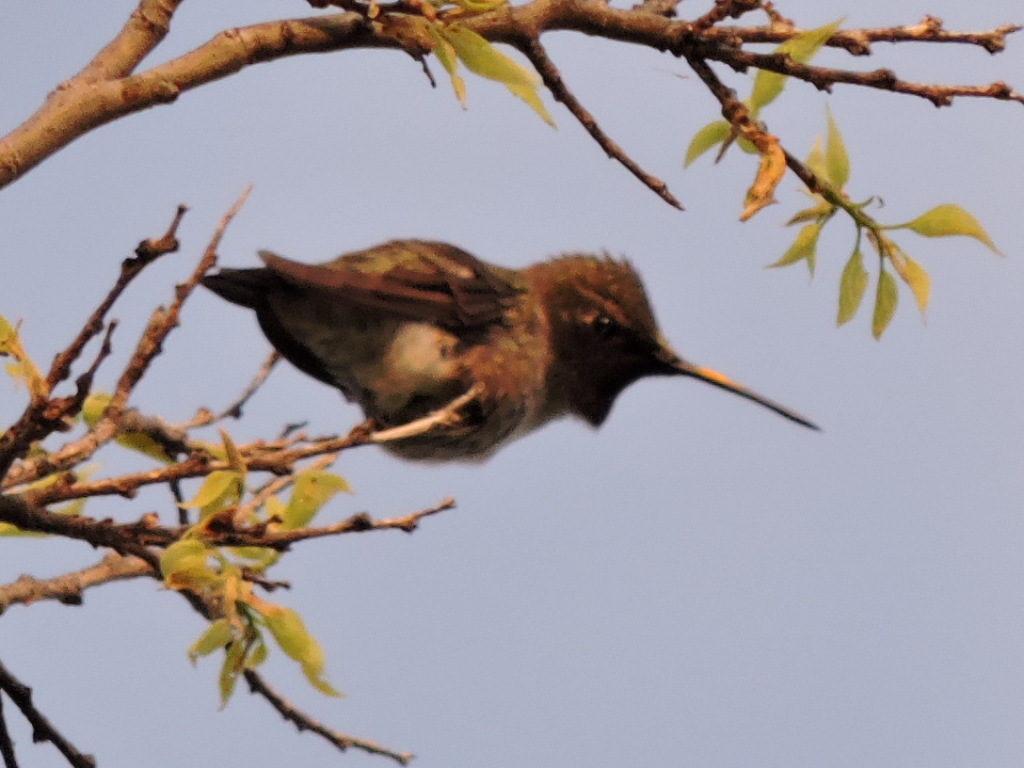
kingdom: Animalia
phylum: Chordata
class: Aves
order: Apodiformes
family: Trochilidae
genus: Archilochus
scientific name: Archilochus alexandri
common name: Black-chinned hummingbird
